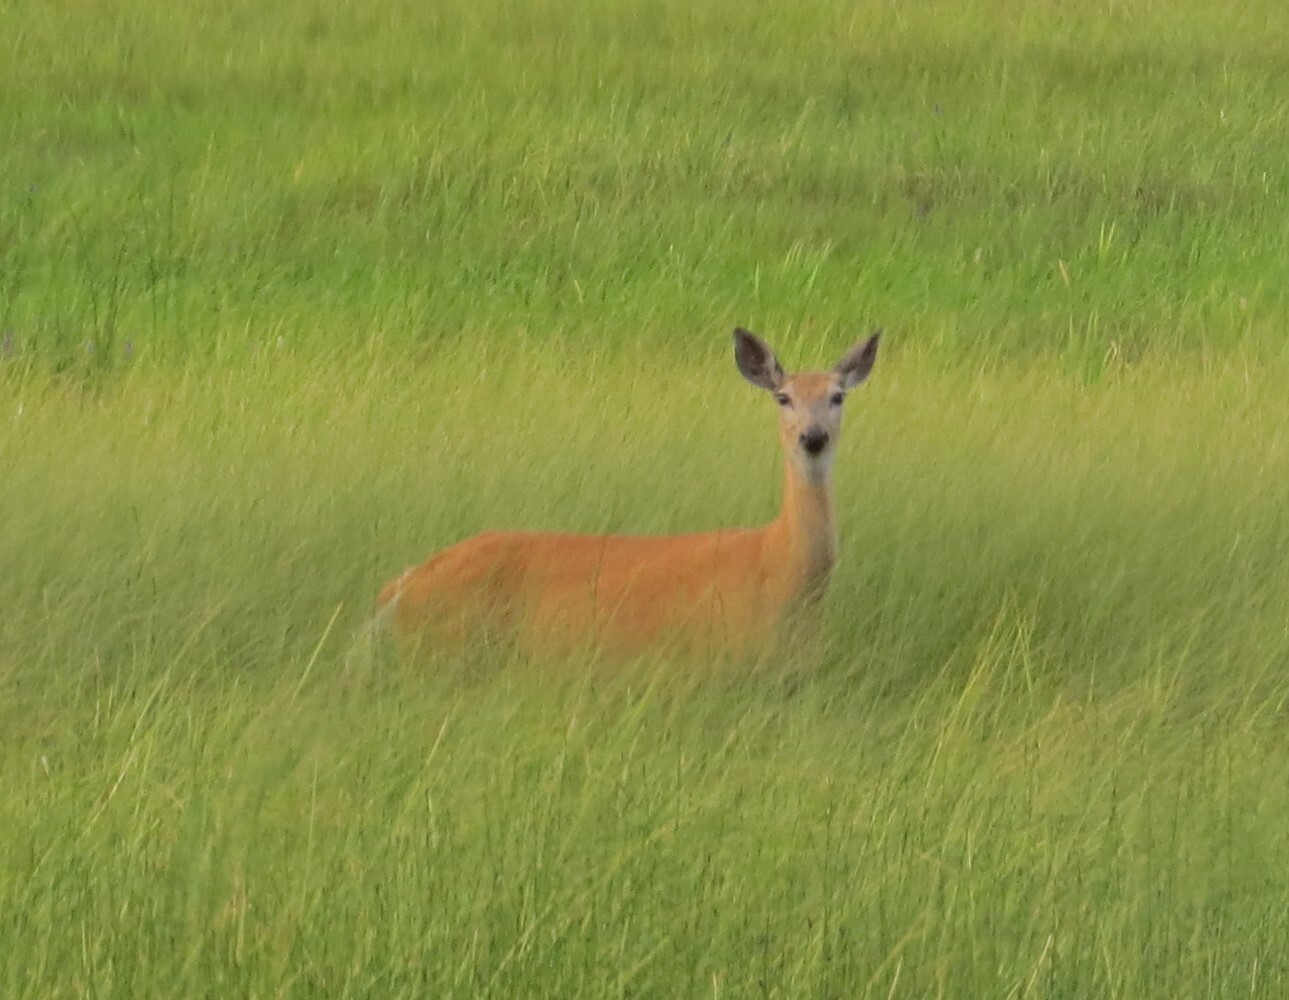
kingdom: Animalia
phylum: Chordata
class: Mammalia
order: Artiodactyla
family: Cervidae
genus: Odocoileus
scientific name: Odocoileus virginianus
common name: White-tailed deer
